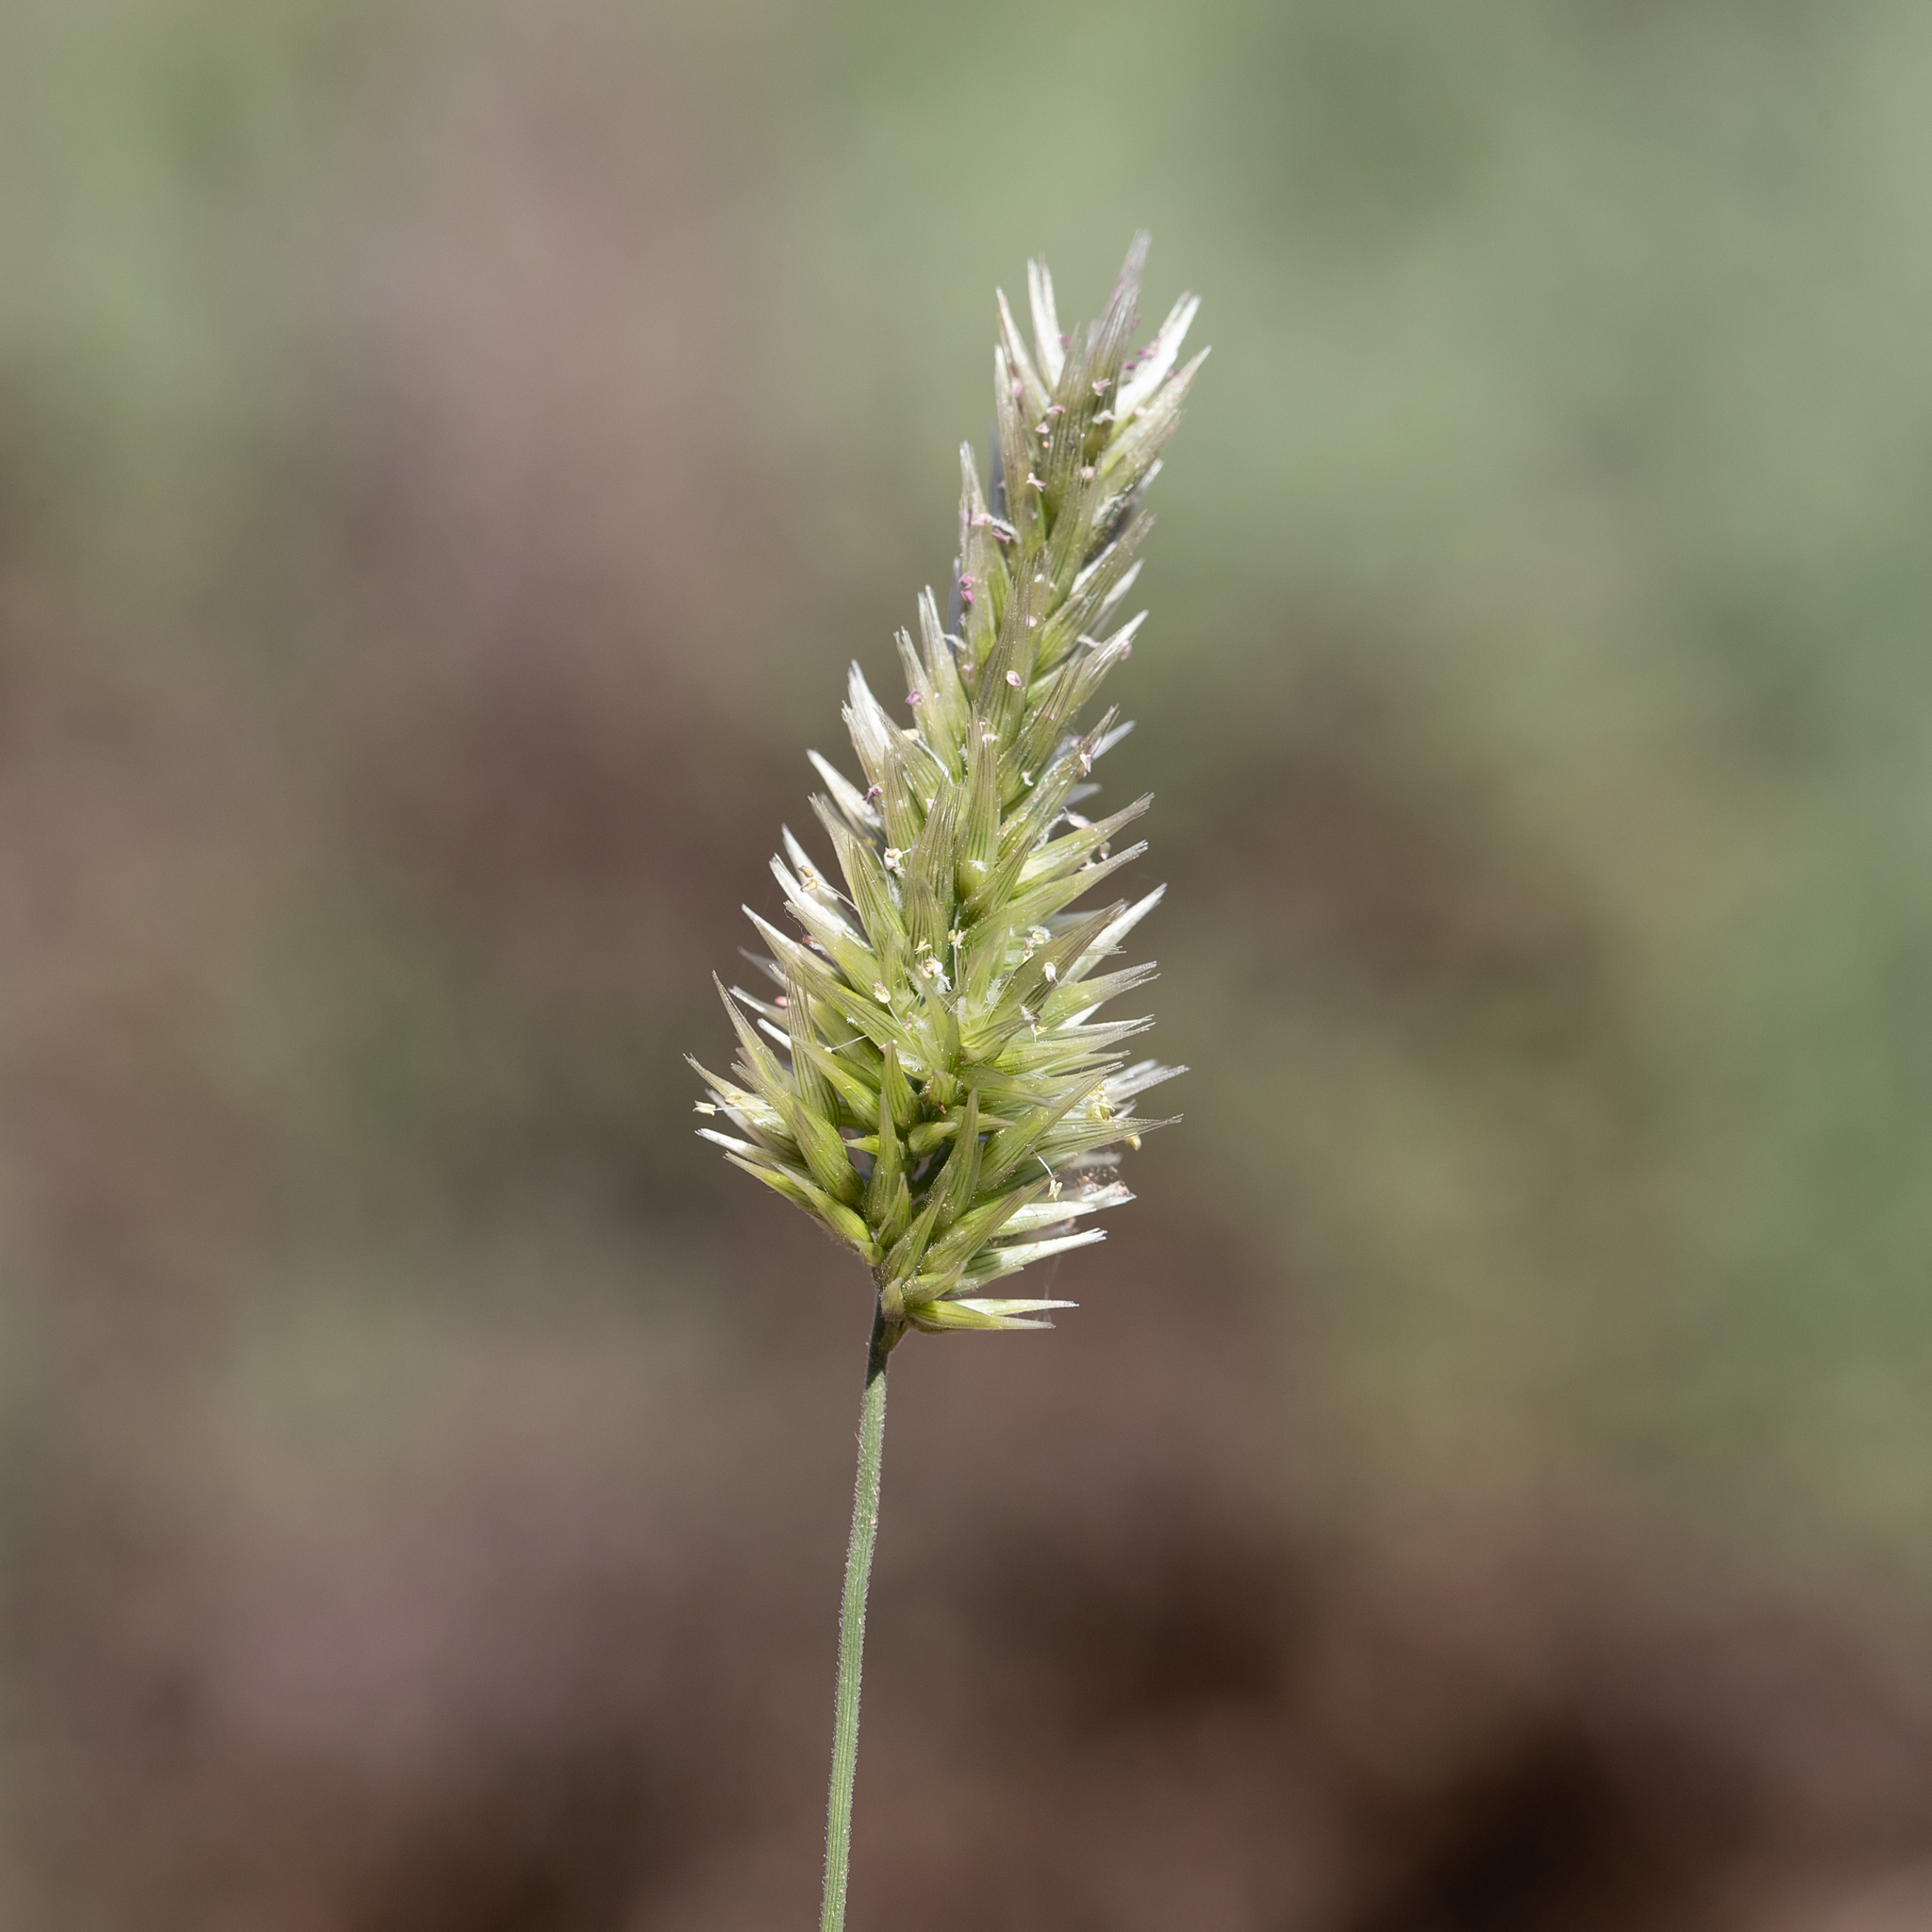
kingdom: Plantae
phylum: Tracheophyta
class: Liliopsida
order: Poales
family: Poaceae
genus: Enneapogon
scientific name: Enneapogon nigricans
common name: Pappus grass
